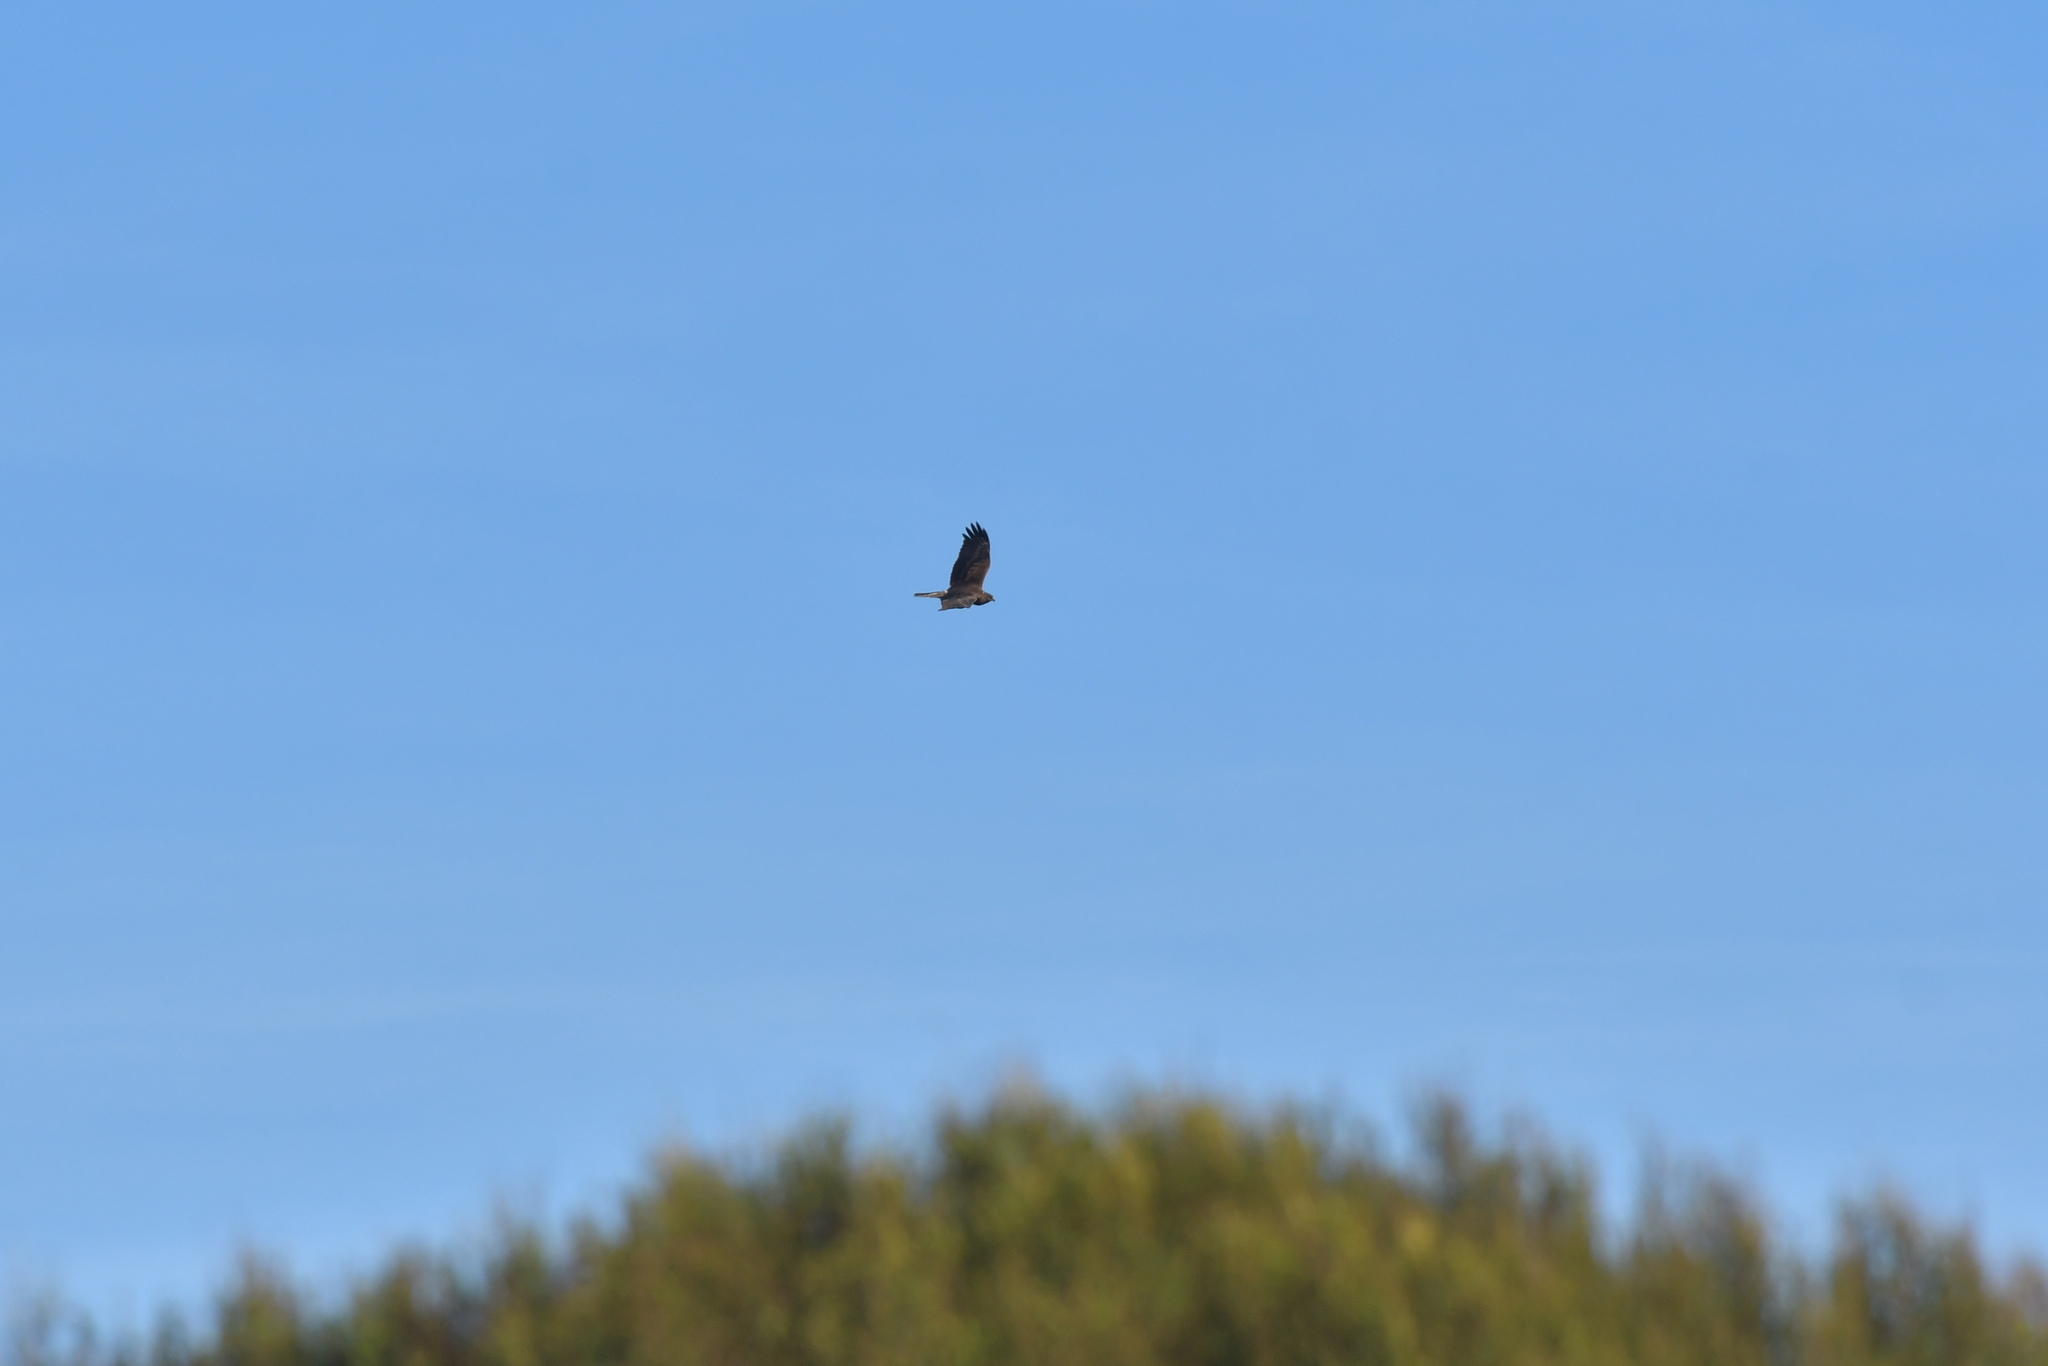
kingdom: Animalia
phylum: Chordata
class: Aves
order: Accipitriformes
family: Accipitridae
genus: Circus
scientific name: Circus approximans
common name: Swamp harrier
